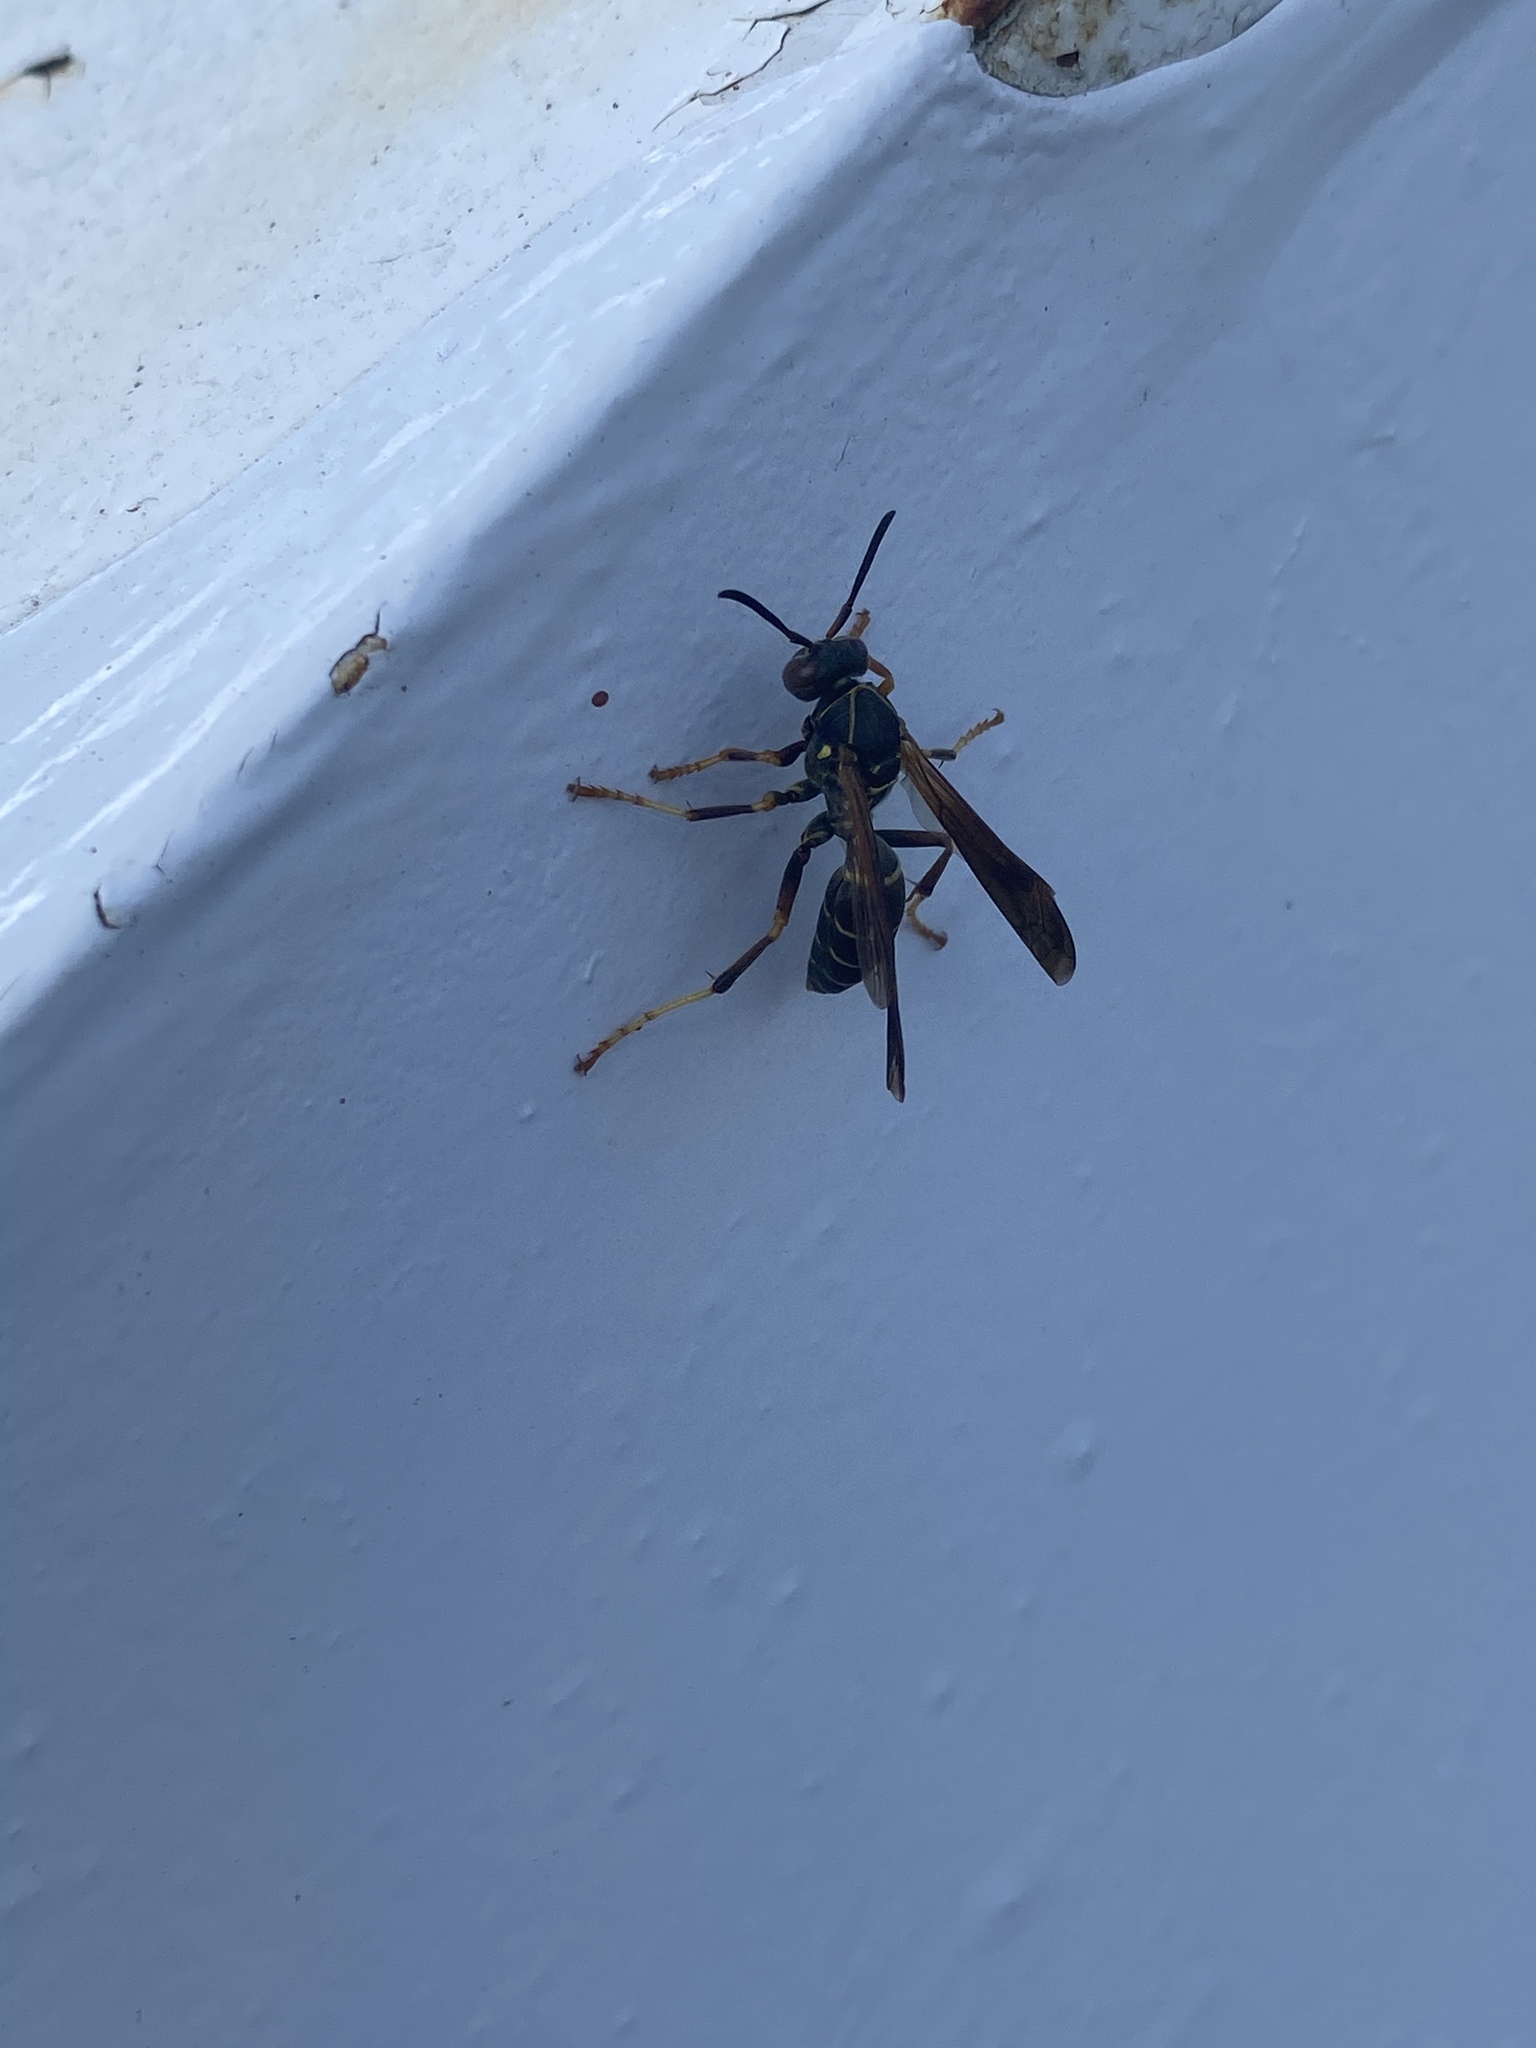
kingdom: Animalia
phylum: Arthropoda
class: Insecta
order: Hymenoptera
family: Eumenidae
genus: Polistes
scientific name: Polistes fuscatus
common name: Dark paper wasp
